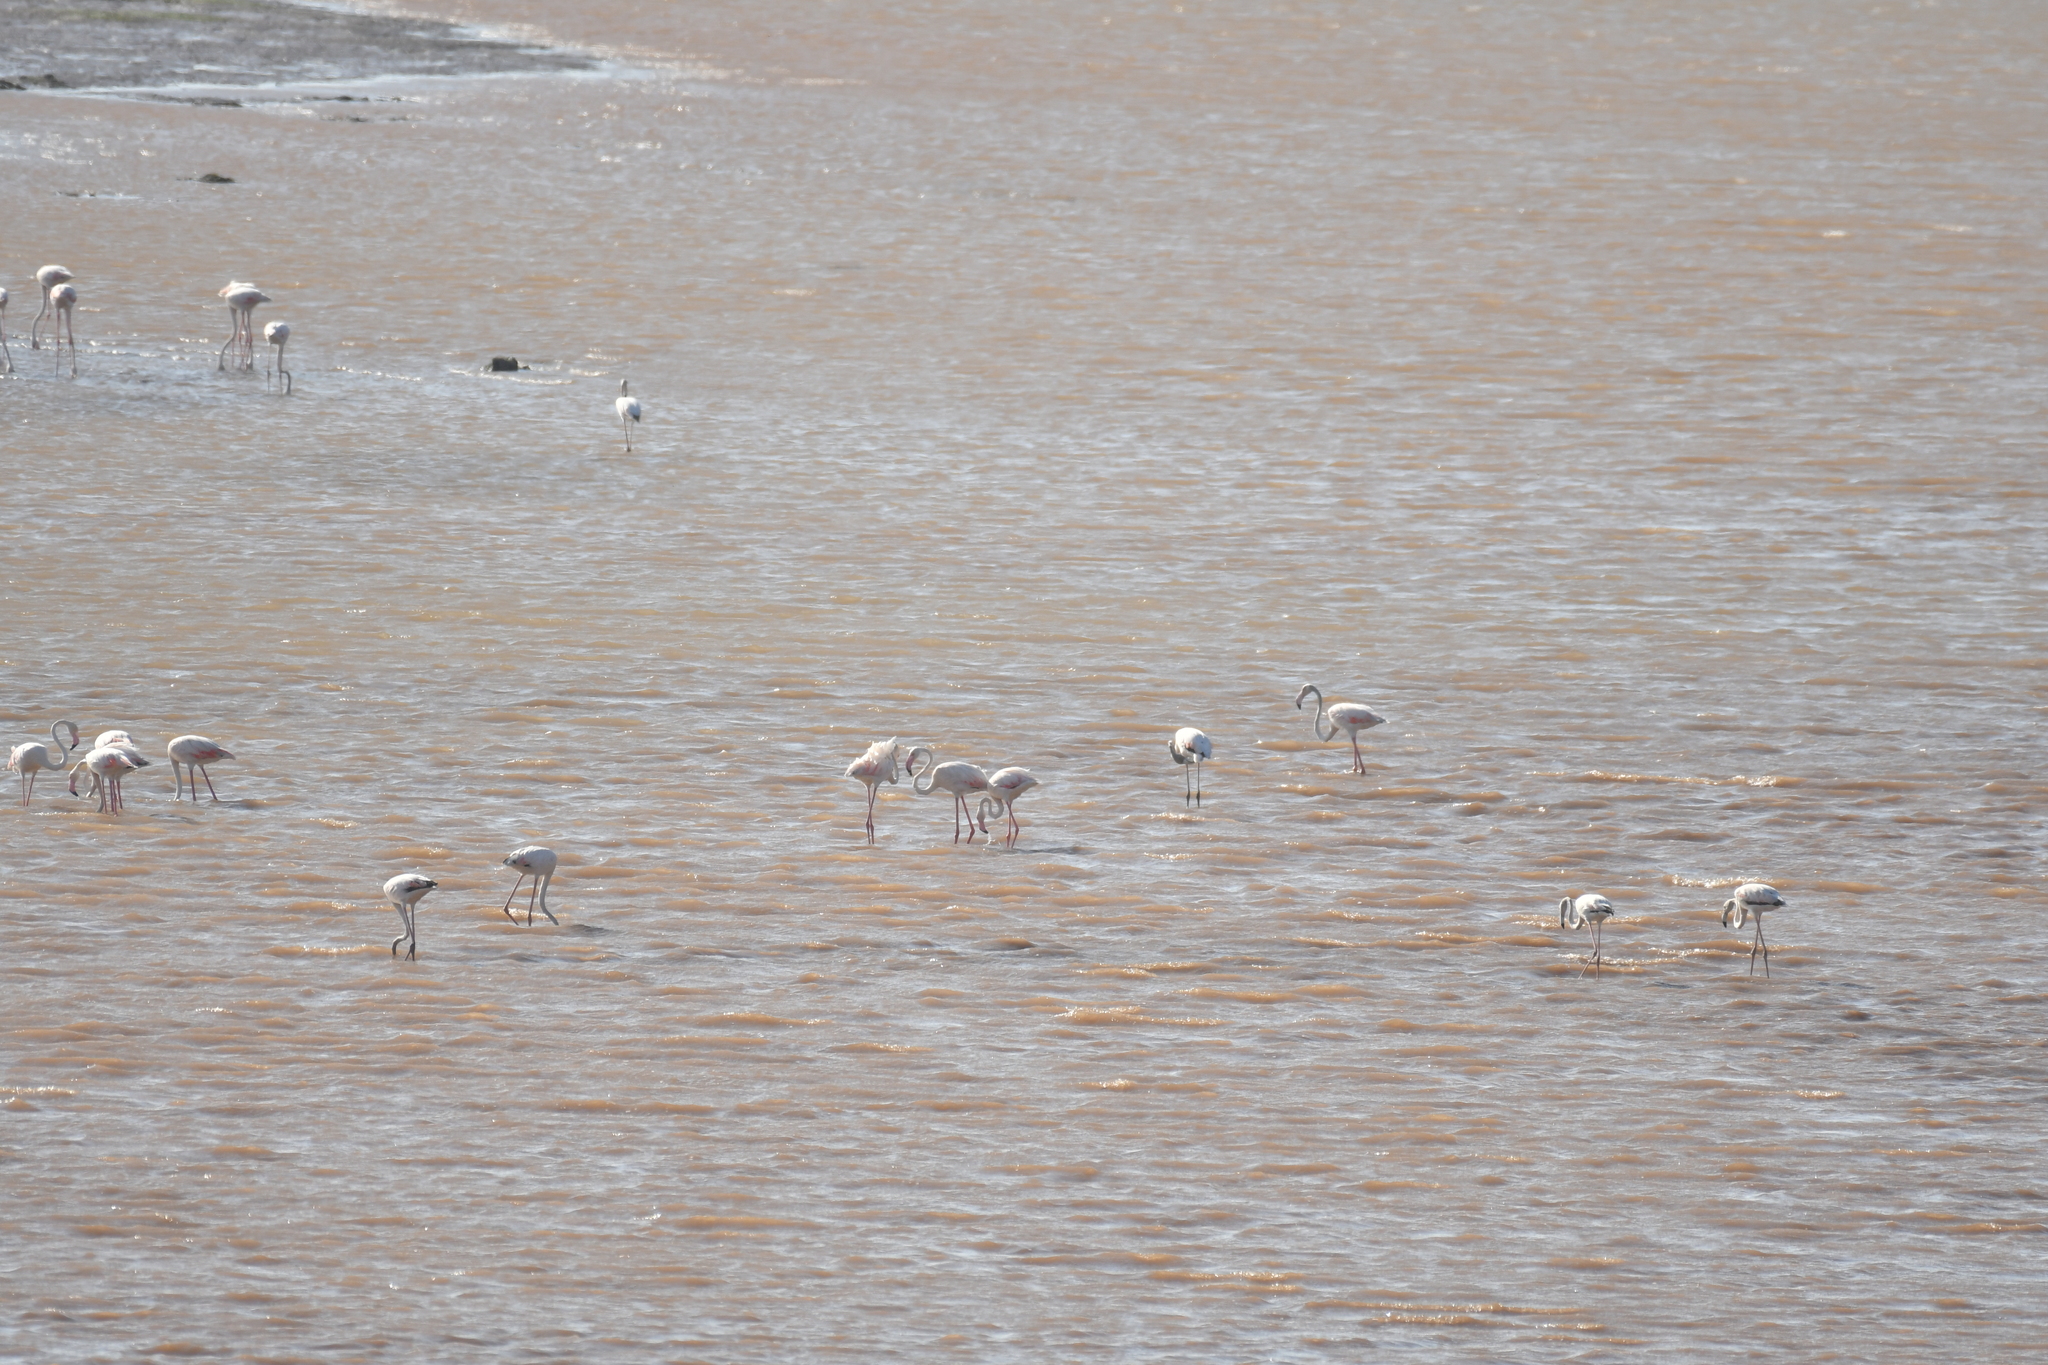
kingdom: Animalia
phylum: Chordata
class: Aves
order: Phoenicopteriformes
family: Phoenicopteridae
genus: Phoenicopterus
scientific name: Phoenicopterus roseus
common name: Greater flamingo
